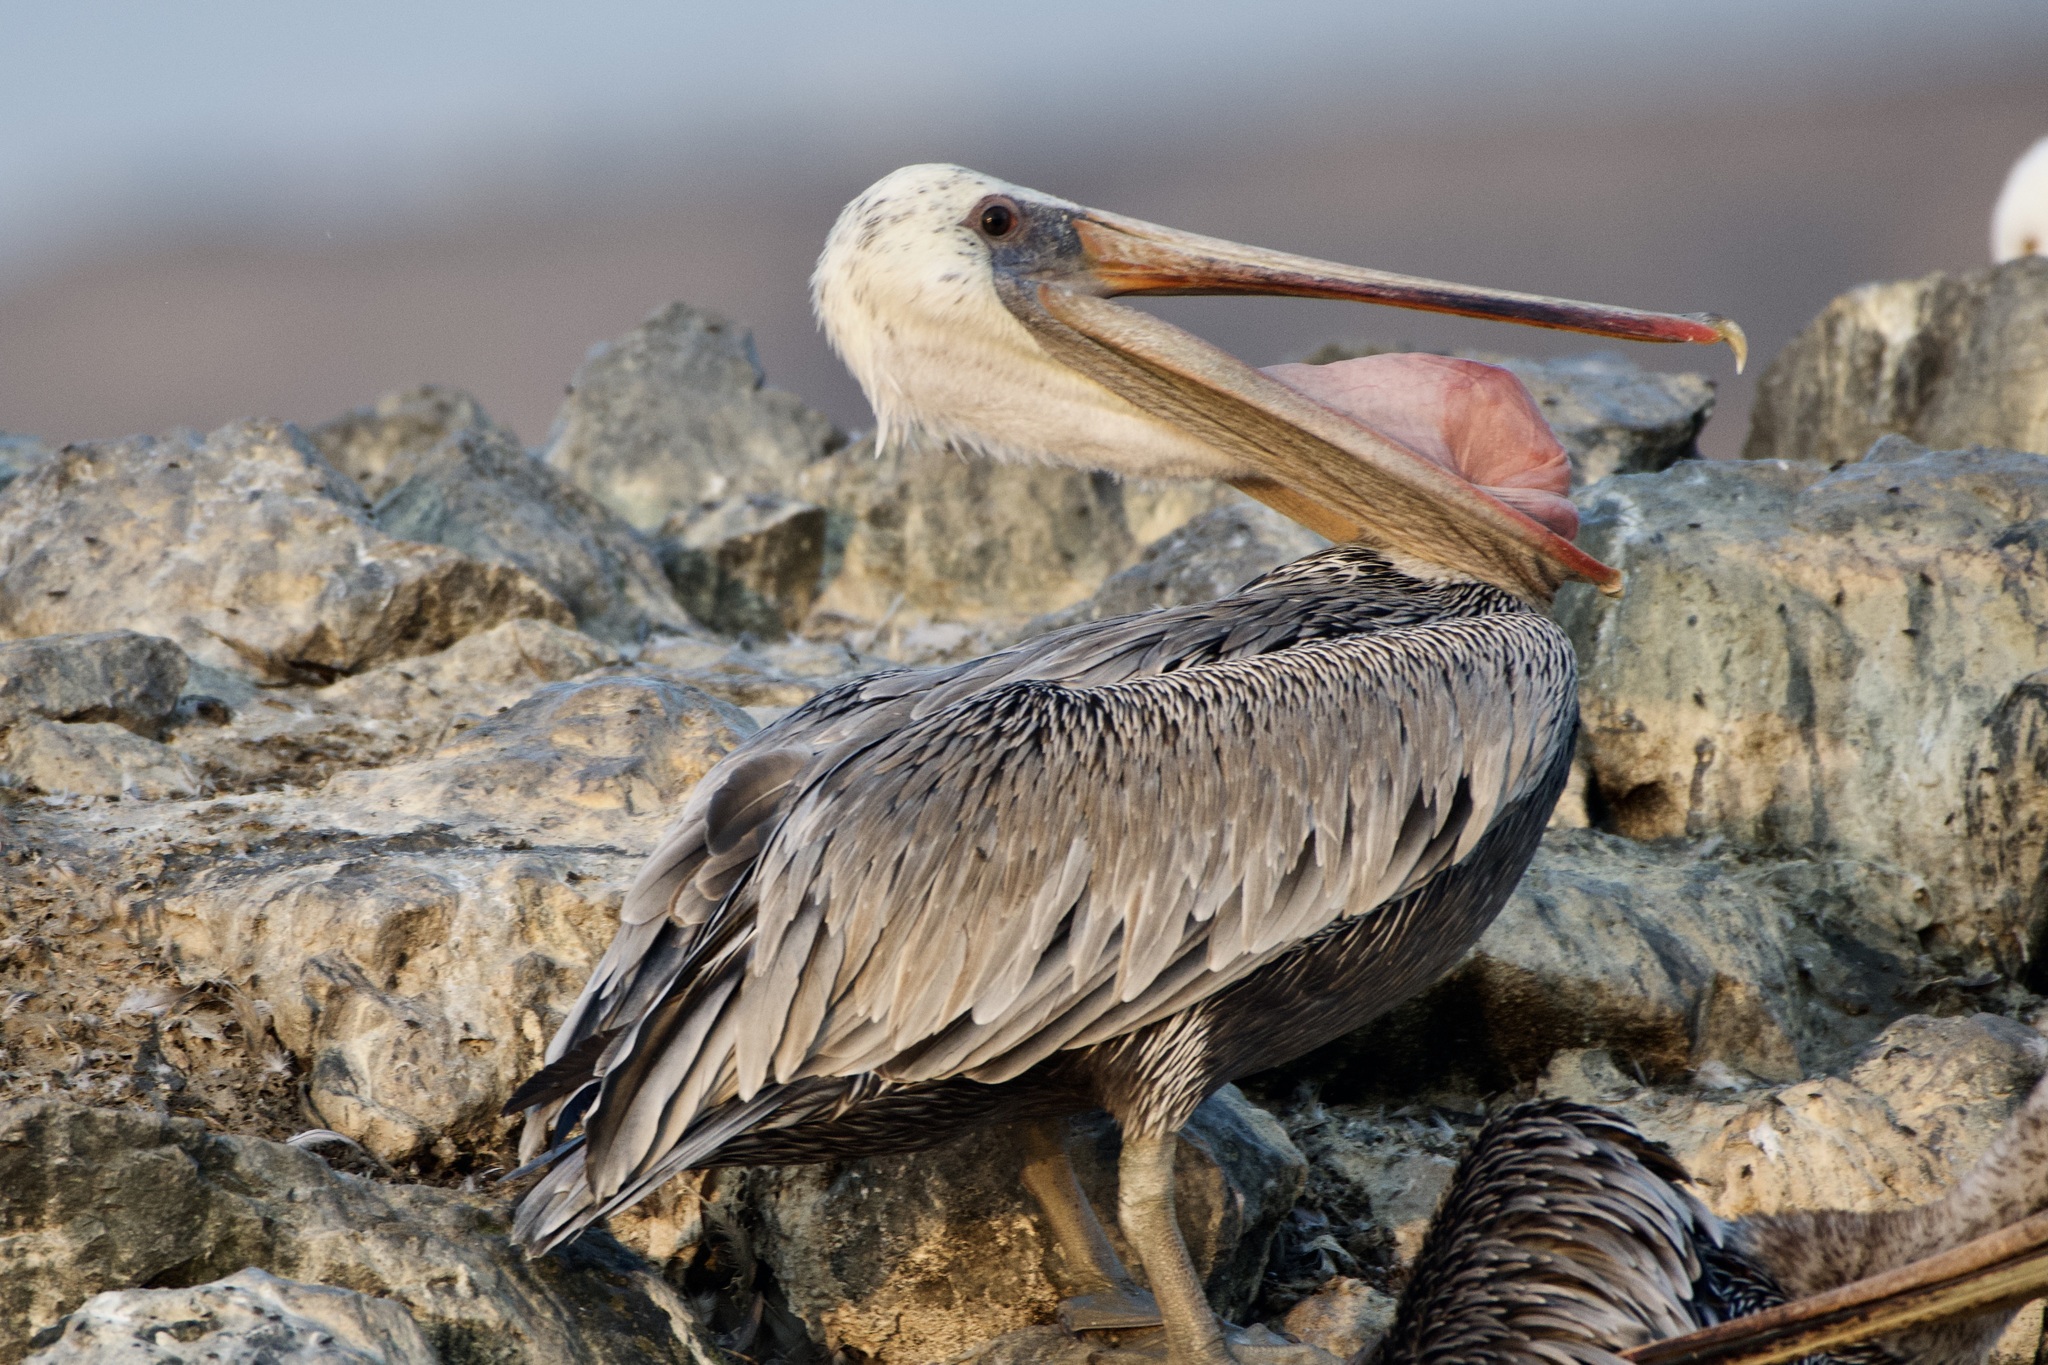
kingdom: Animalia
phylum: Chordata
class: Aves
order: Pelecaniformes
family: Pelecanidae
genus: Pelecanus
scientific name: Pelecanus occidentalis
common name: Brown pelican
